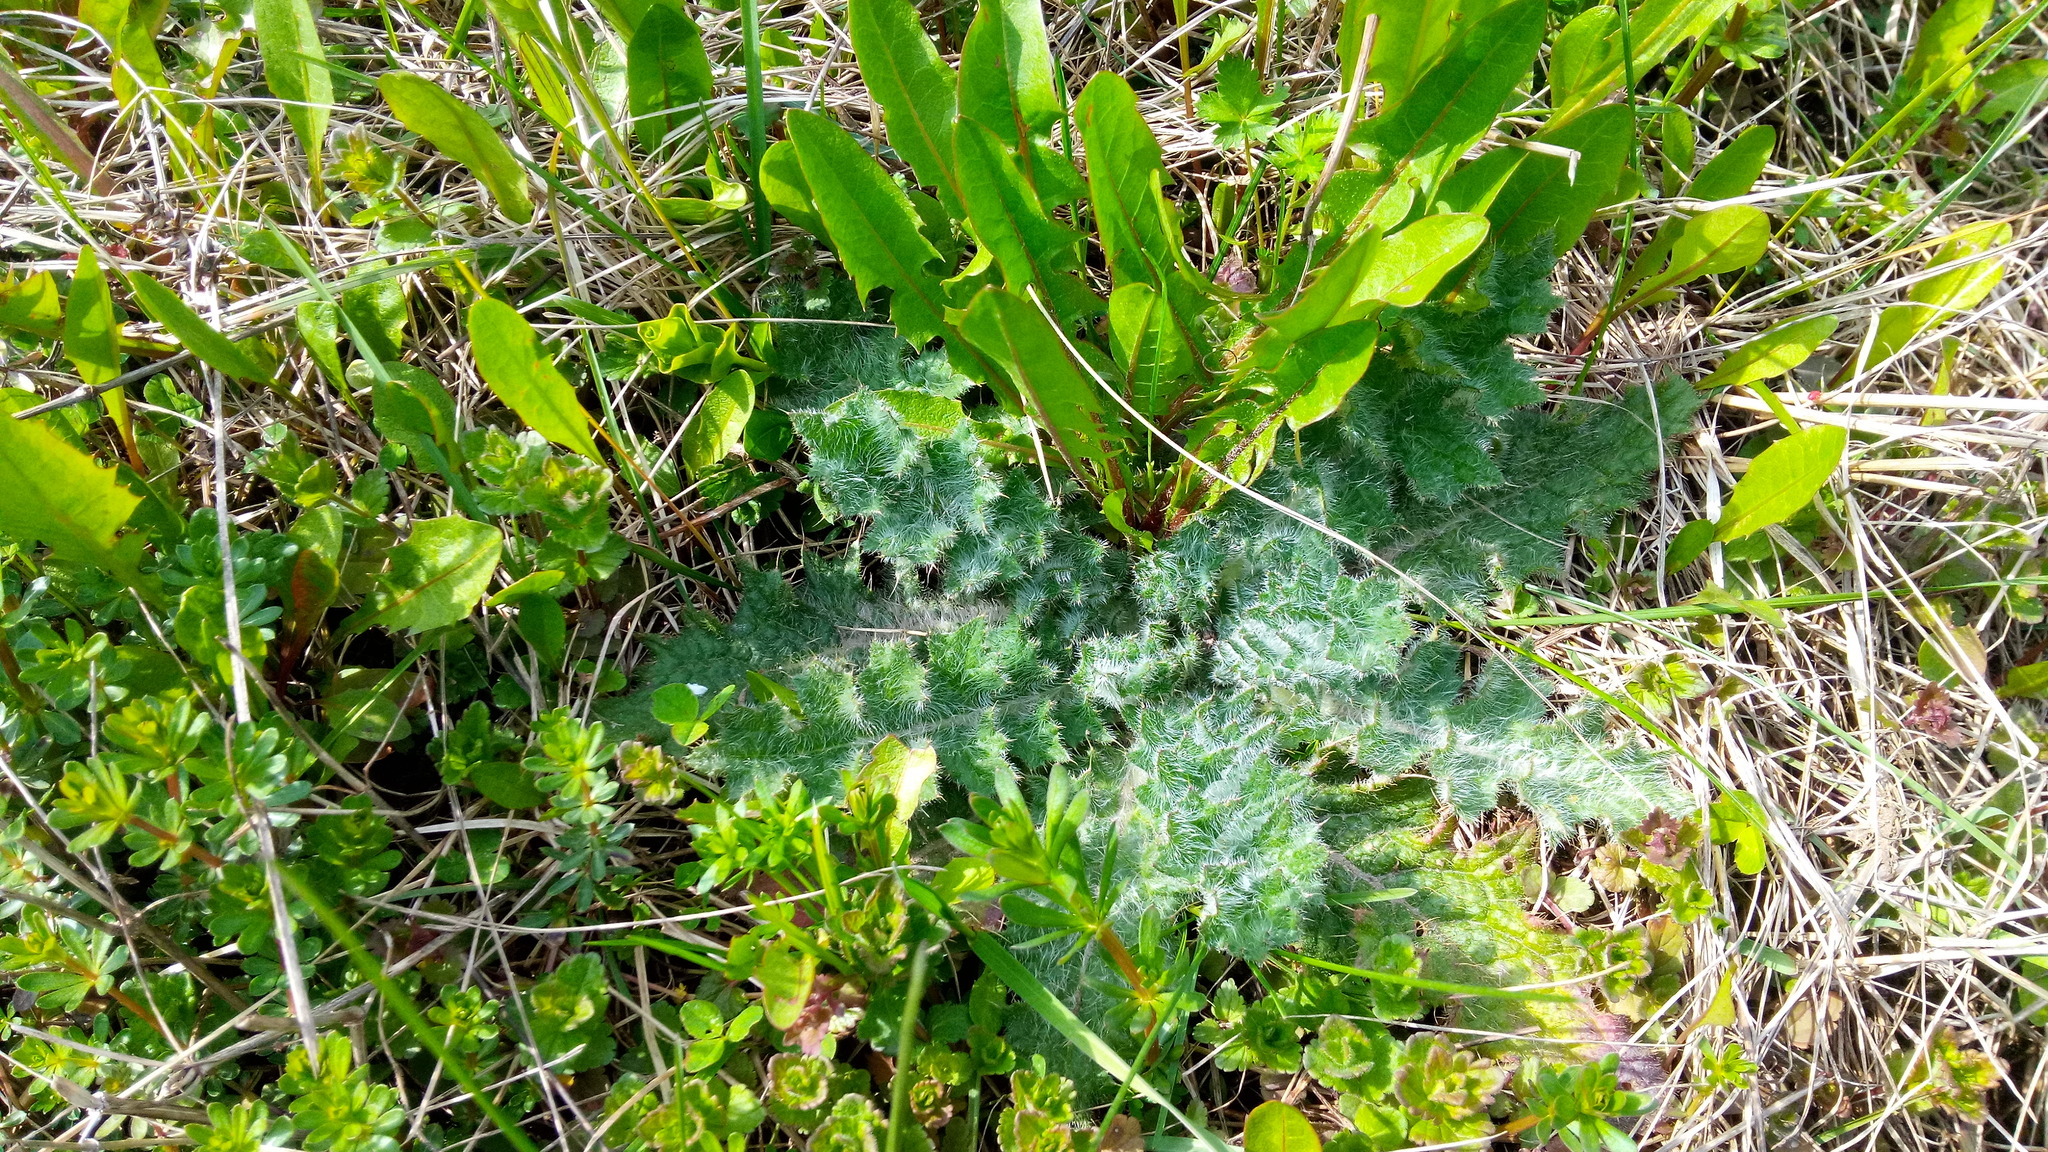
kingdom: Plantae
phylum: Tracheophyta
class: Magnoliopsida
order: Asterales
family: Asteraceae
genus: Cirsium
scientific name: Cirsium vulgare
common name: Bull thistle
